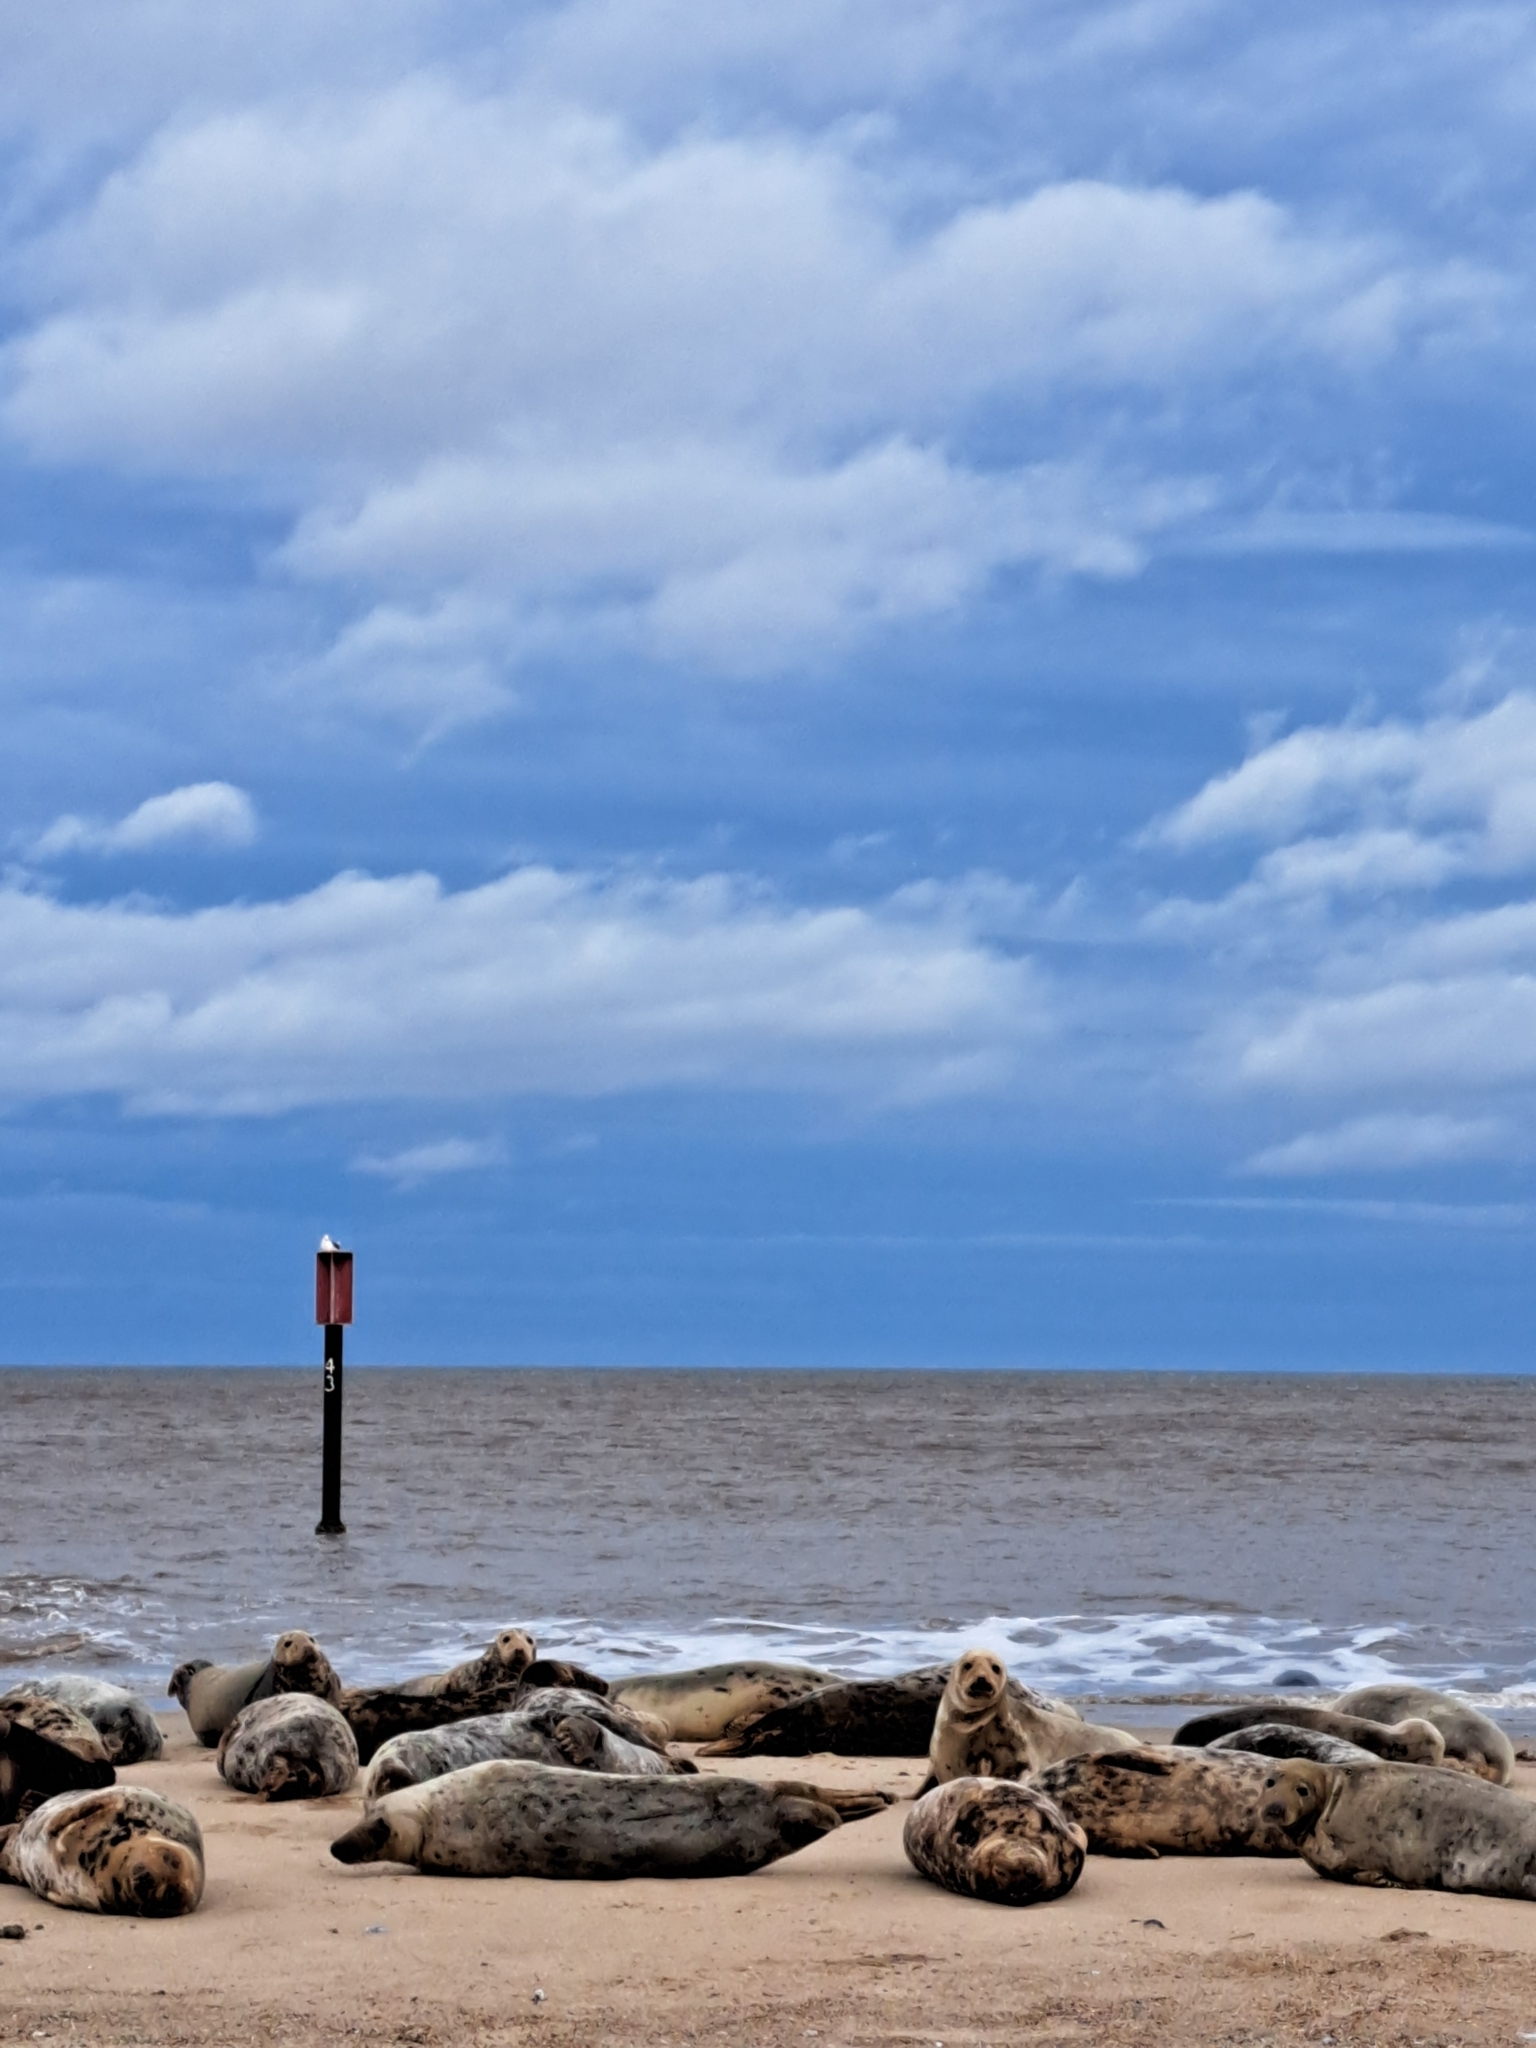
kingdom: Animalia
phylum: Chordata
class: Mammalia
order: Carnivora
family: Phocidae
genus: Halichoerus
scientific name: Halichoerus grypus
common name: Grey seal
